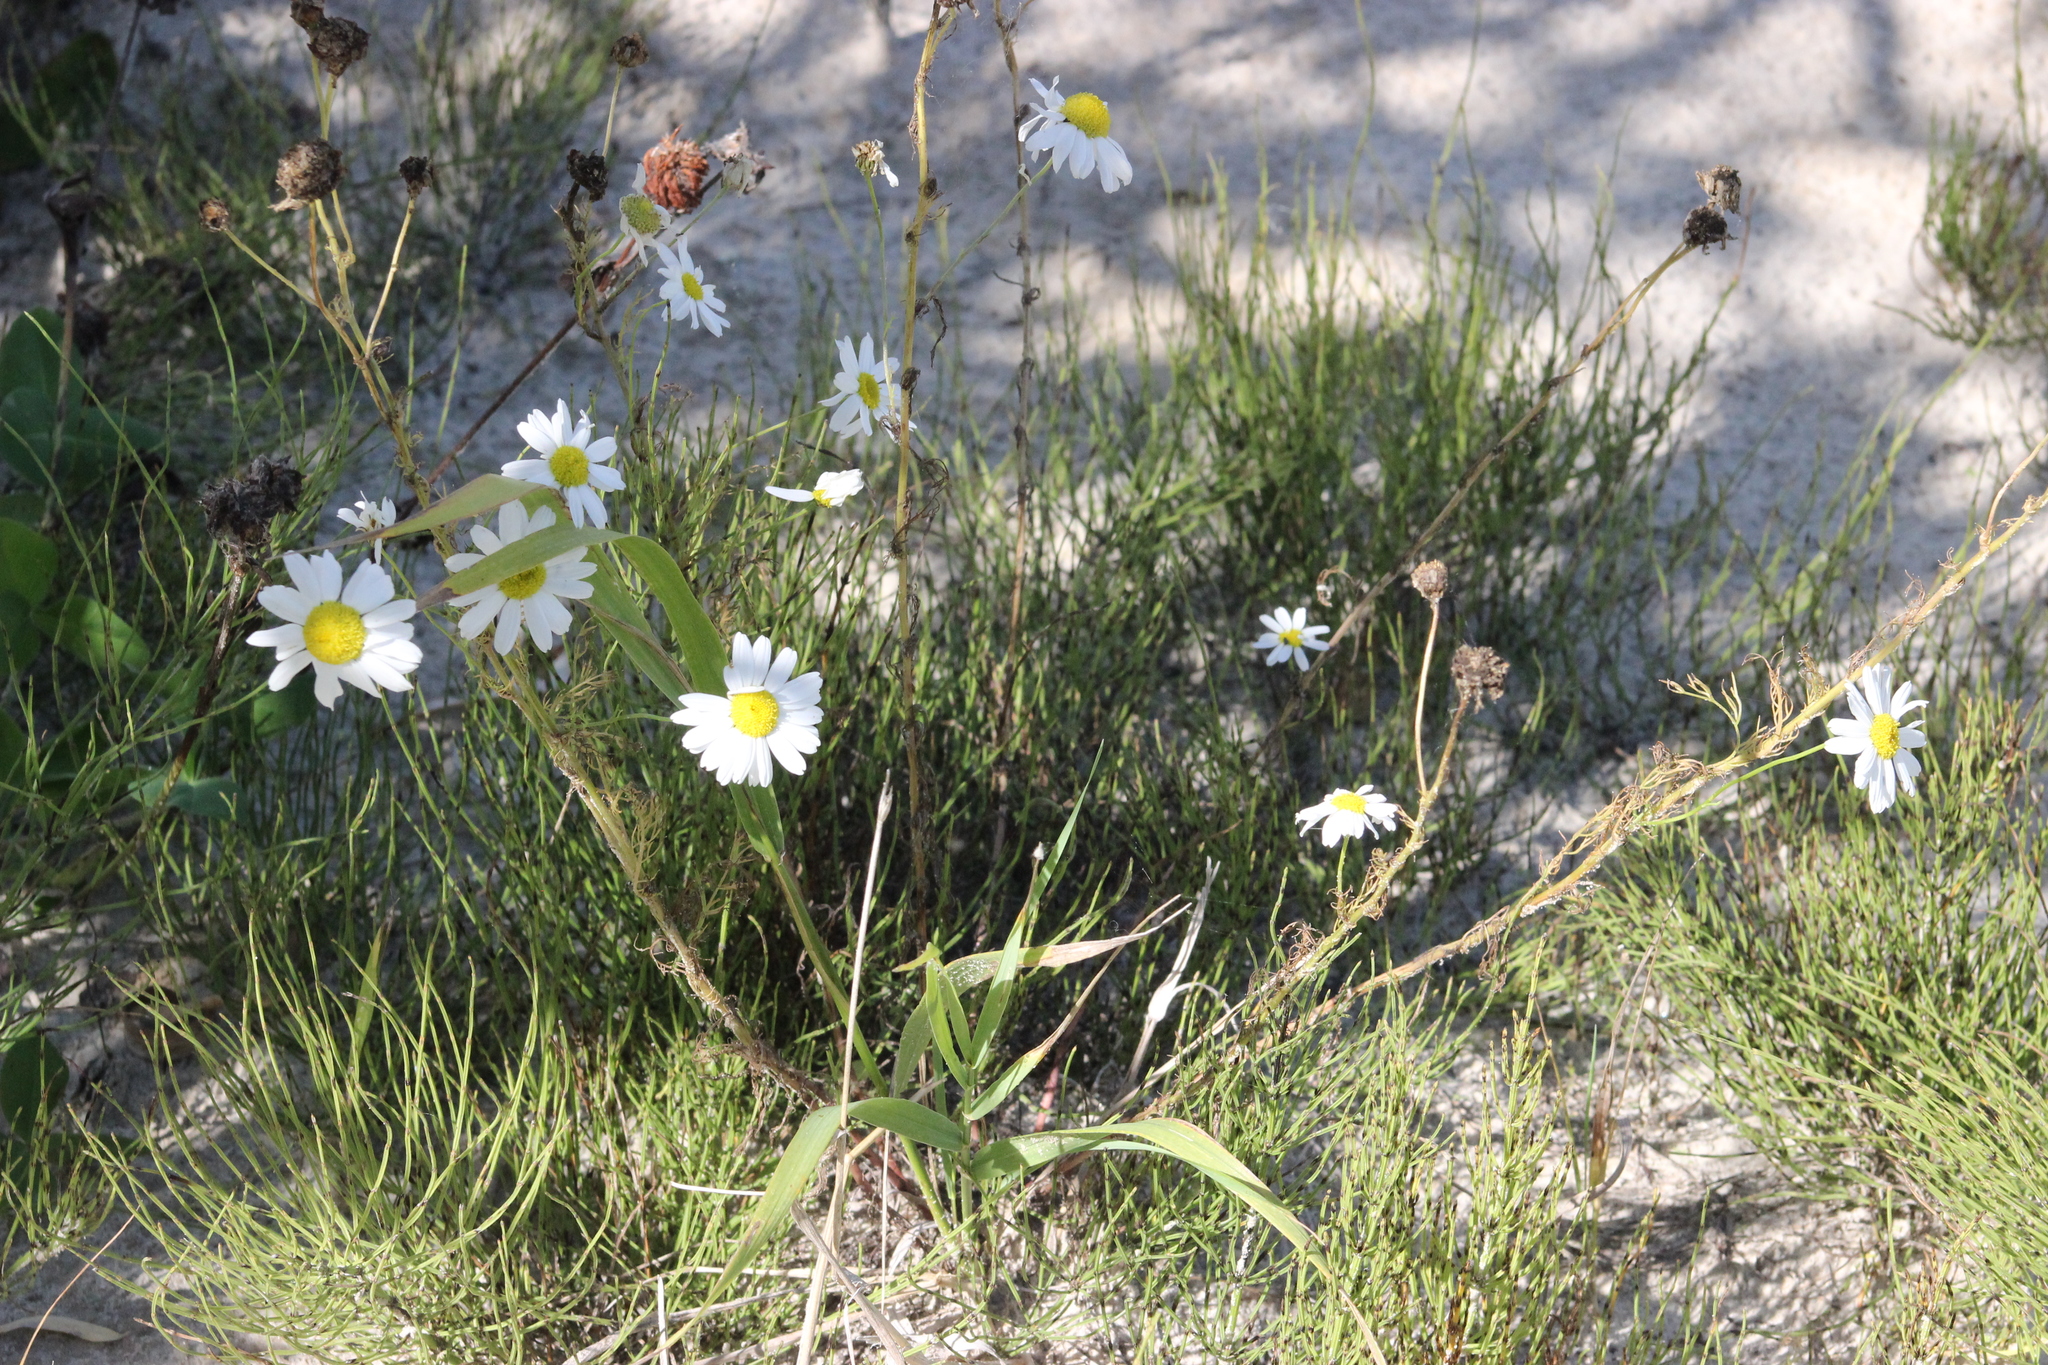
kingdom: Plantae
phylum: Tracheophyta
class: Magnoliopsida
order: Asterales
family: Asteraceae
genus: Tripleurospermum
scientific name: Tripleurospermum inodorum
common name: Scentless mayweed
